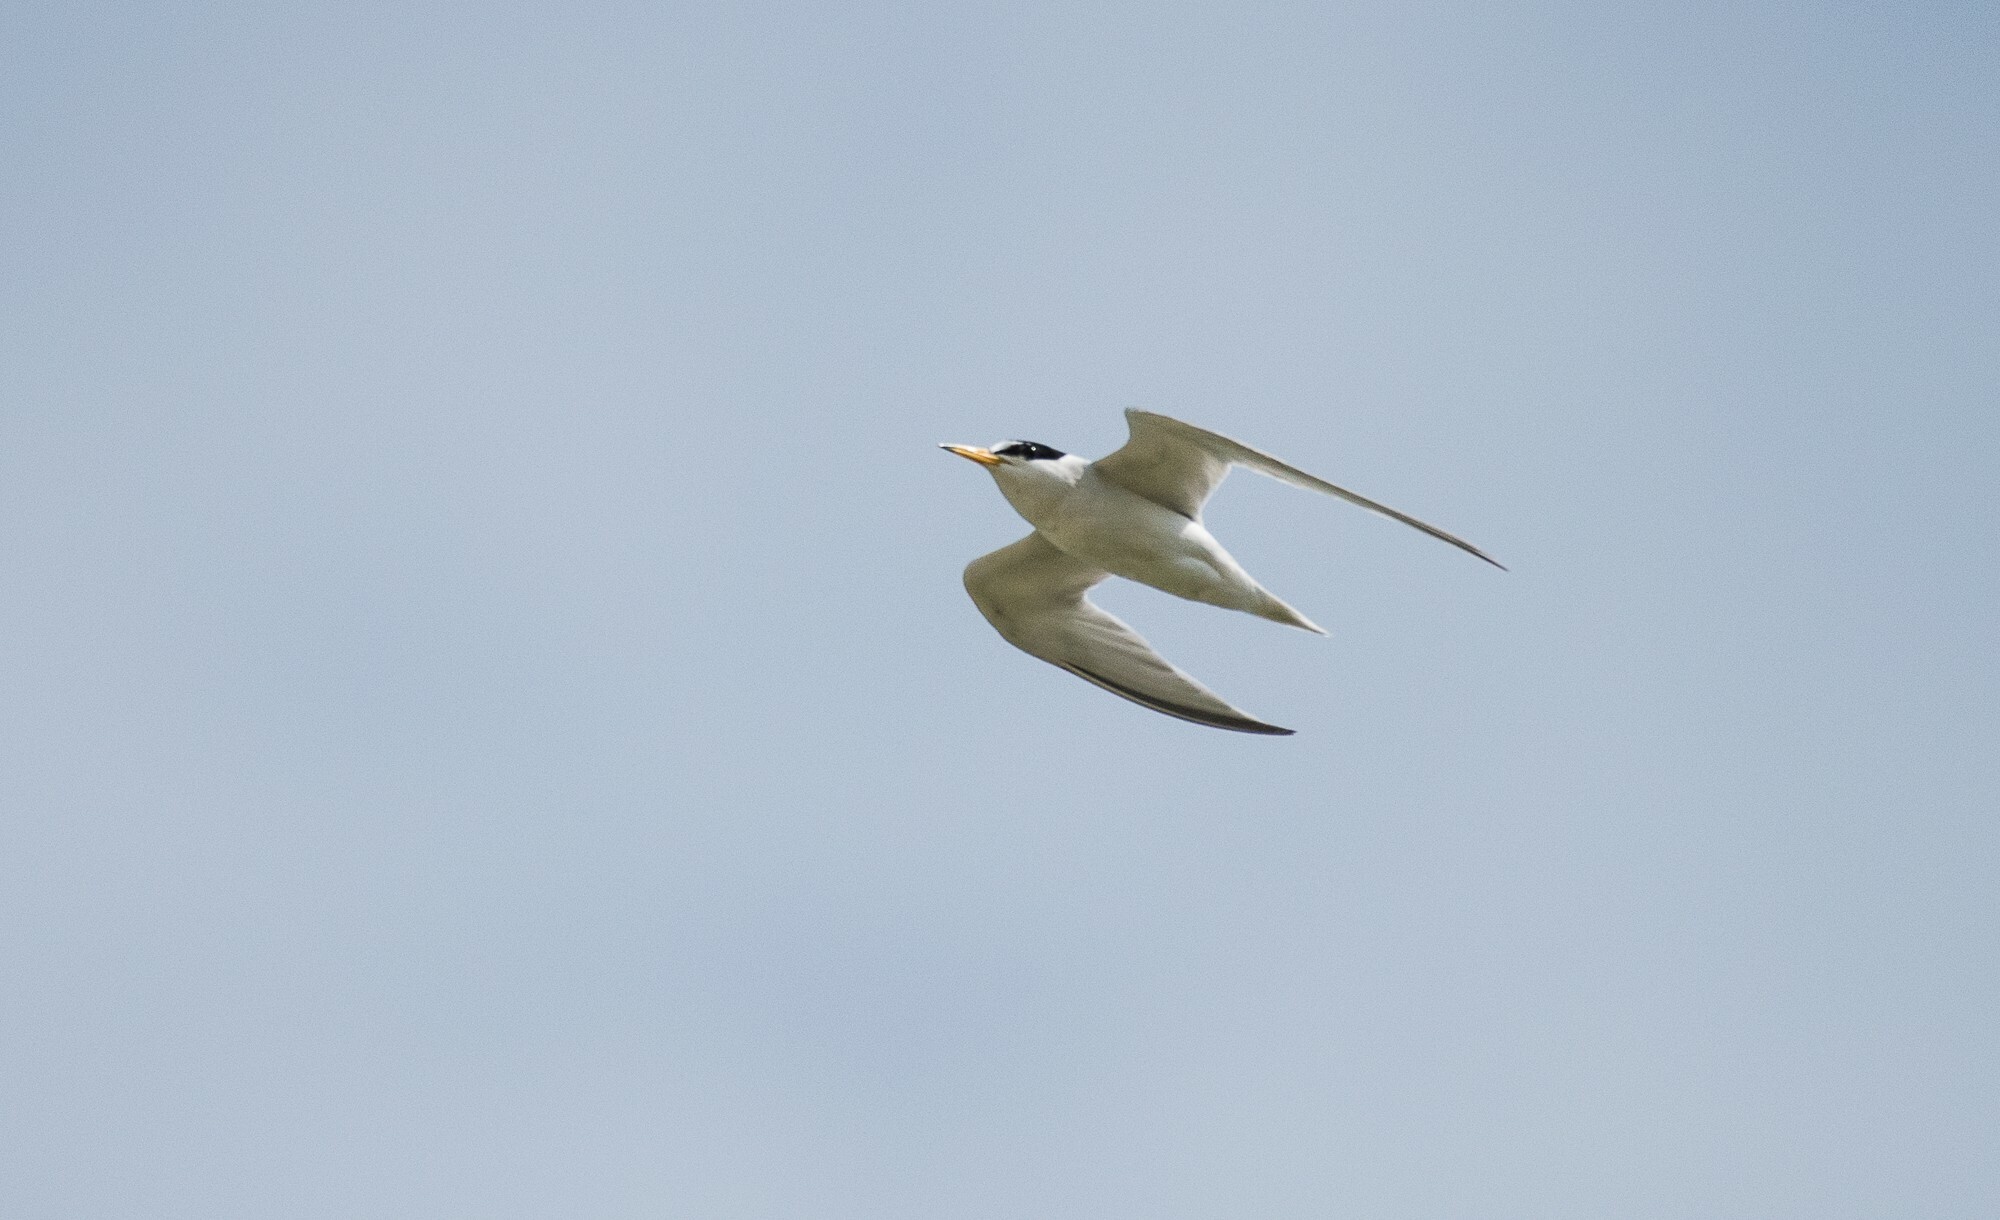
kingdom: Animalia
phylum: Chordata
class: Aves
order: Charadriiformes
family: Laridae
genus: Sternula
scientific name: Sternula antillarum
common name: Least tern
